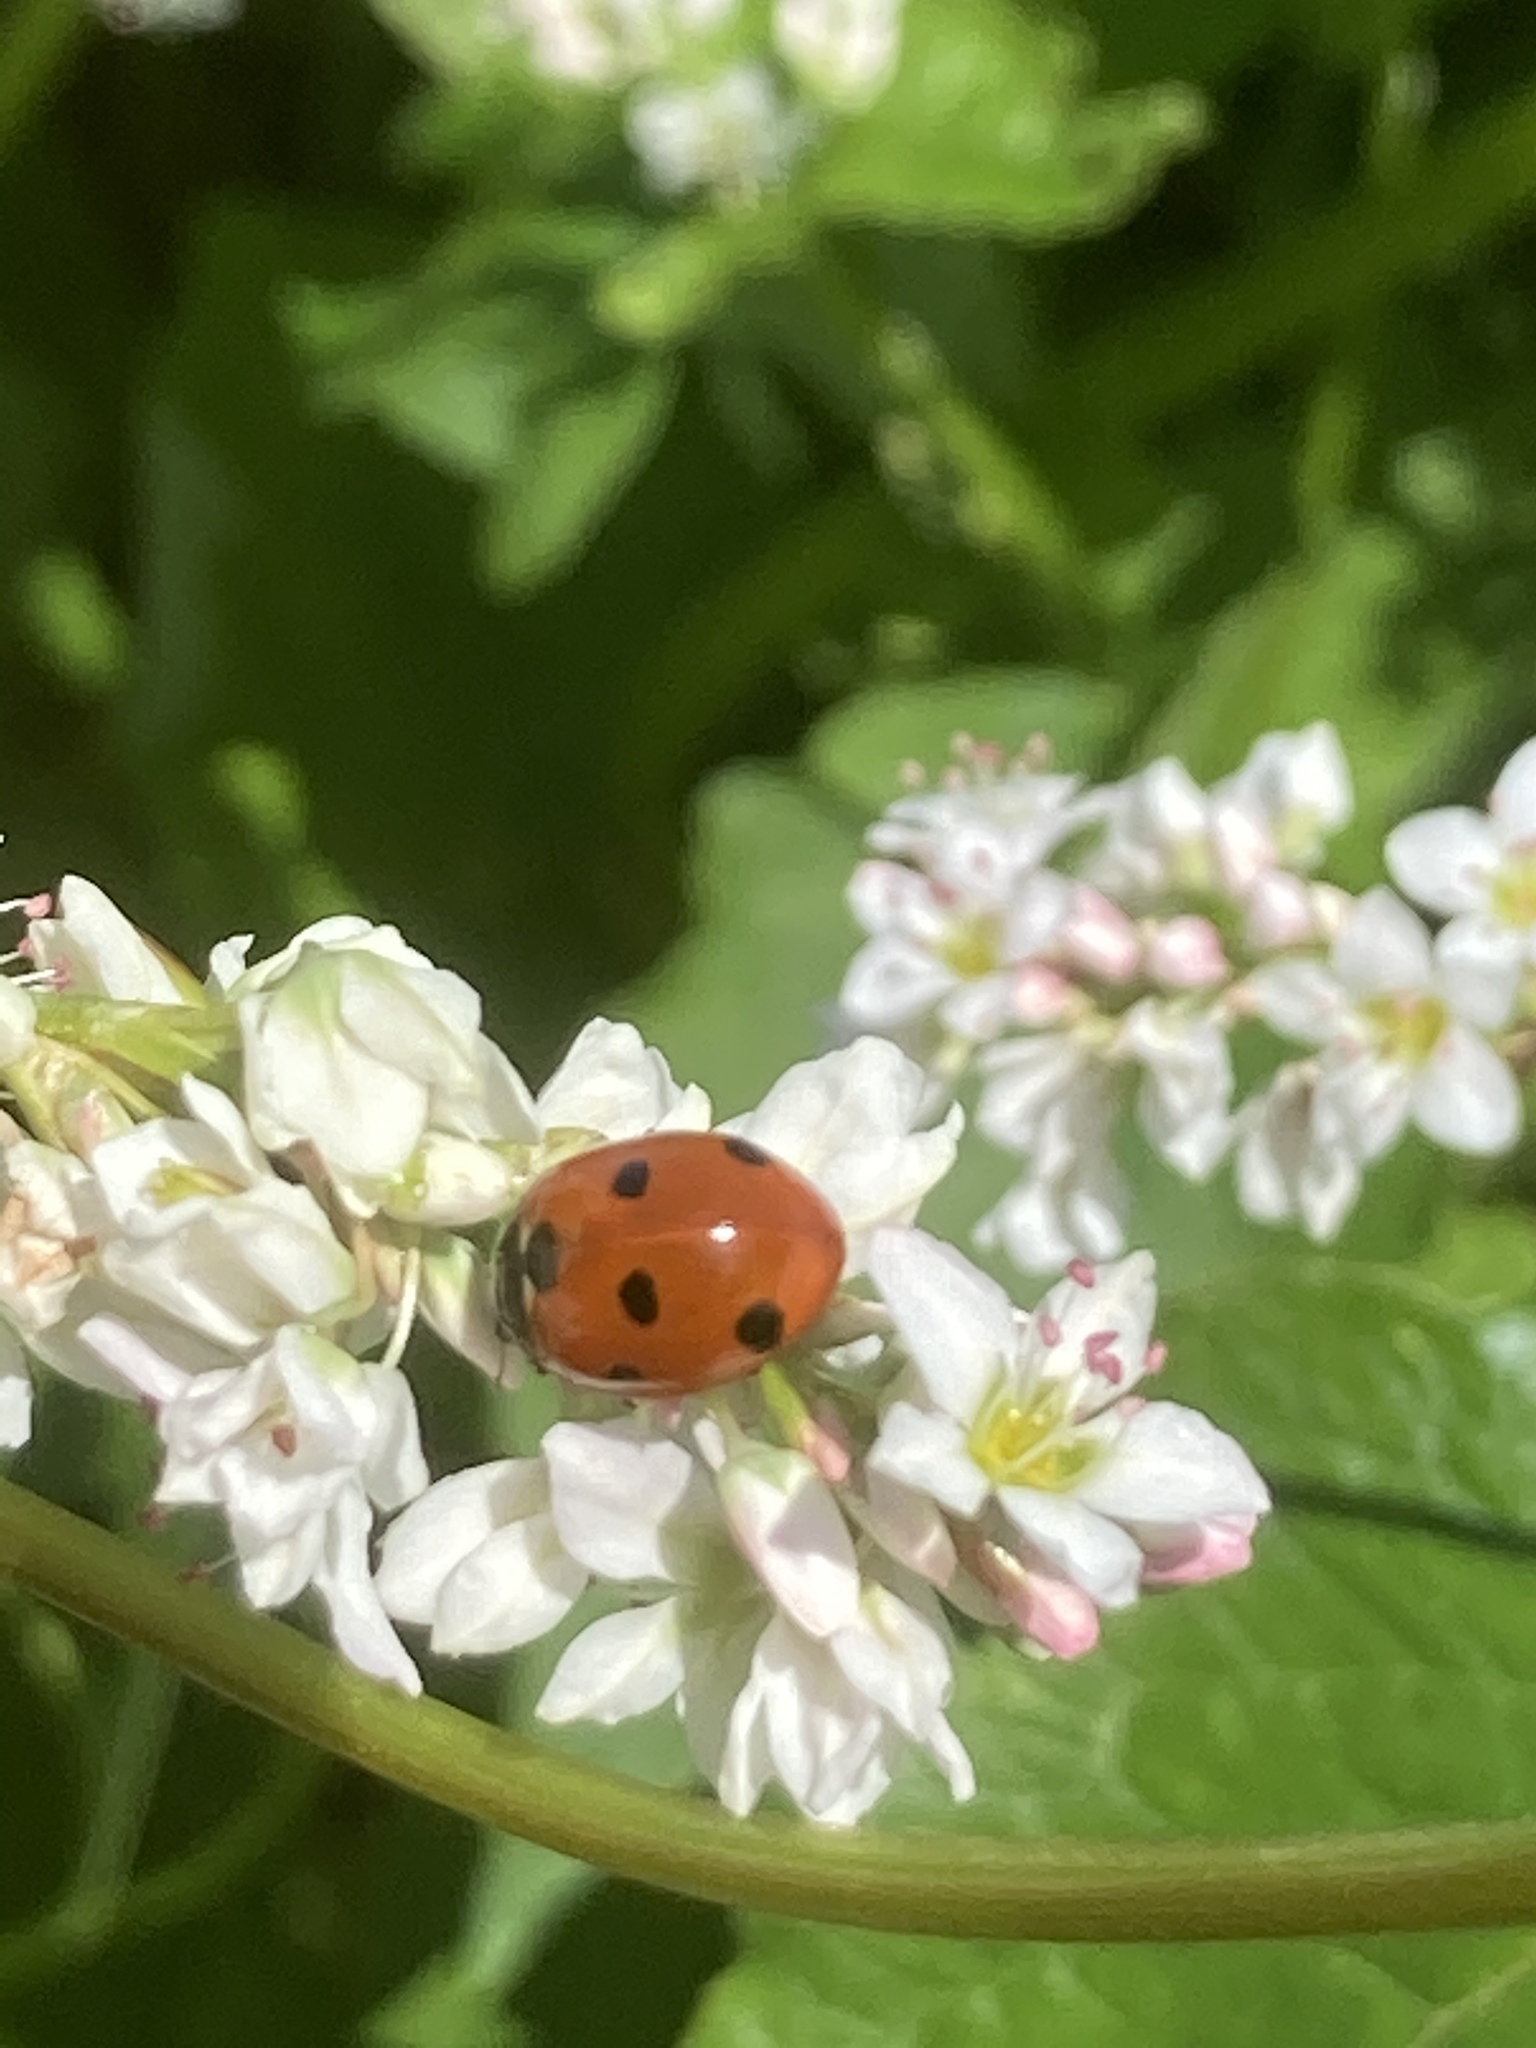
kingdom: Animalia
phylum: Arthropoda
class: Insecta
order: Coleoptera
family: Coccinellidae
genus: Coccinella
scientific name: Coccinella septempunctata
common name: Sevenspotted lady beetle
